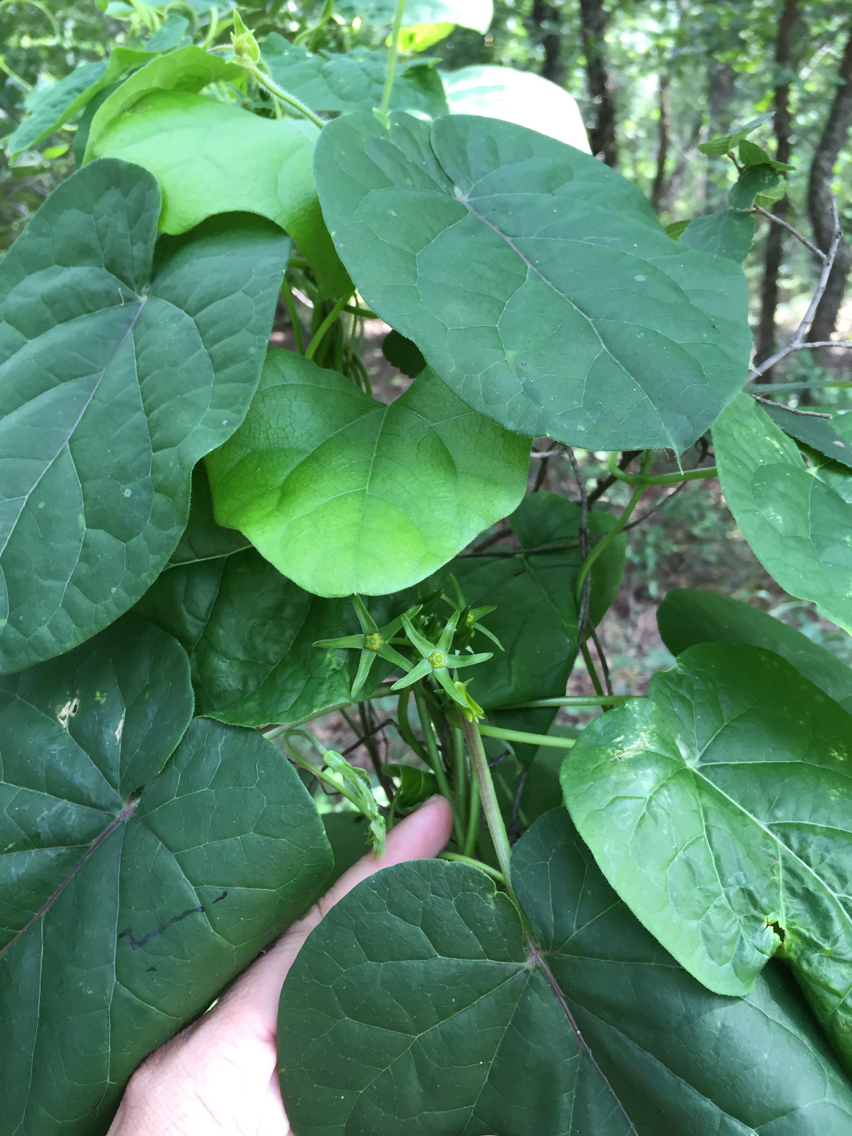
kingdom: Plantae
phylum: Tracheophyta
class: Magnoliopsida
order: Gentianales
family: Apocynaceae
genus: Gonolobus
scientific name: Gonolobus suberosus
